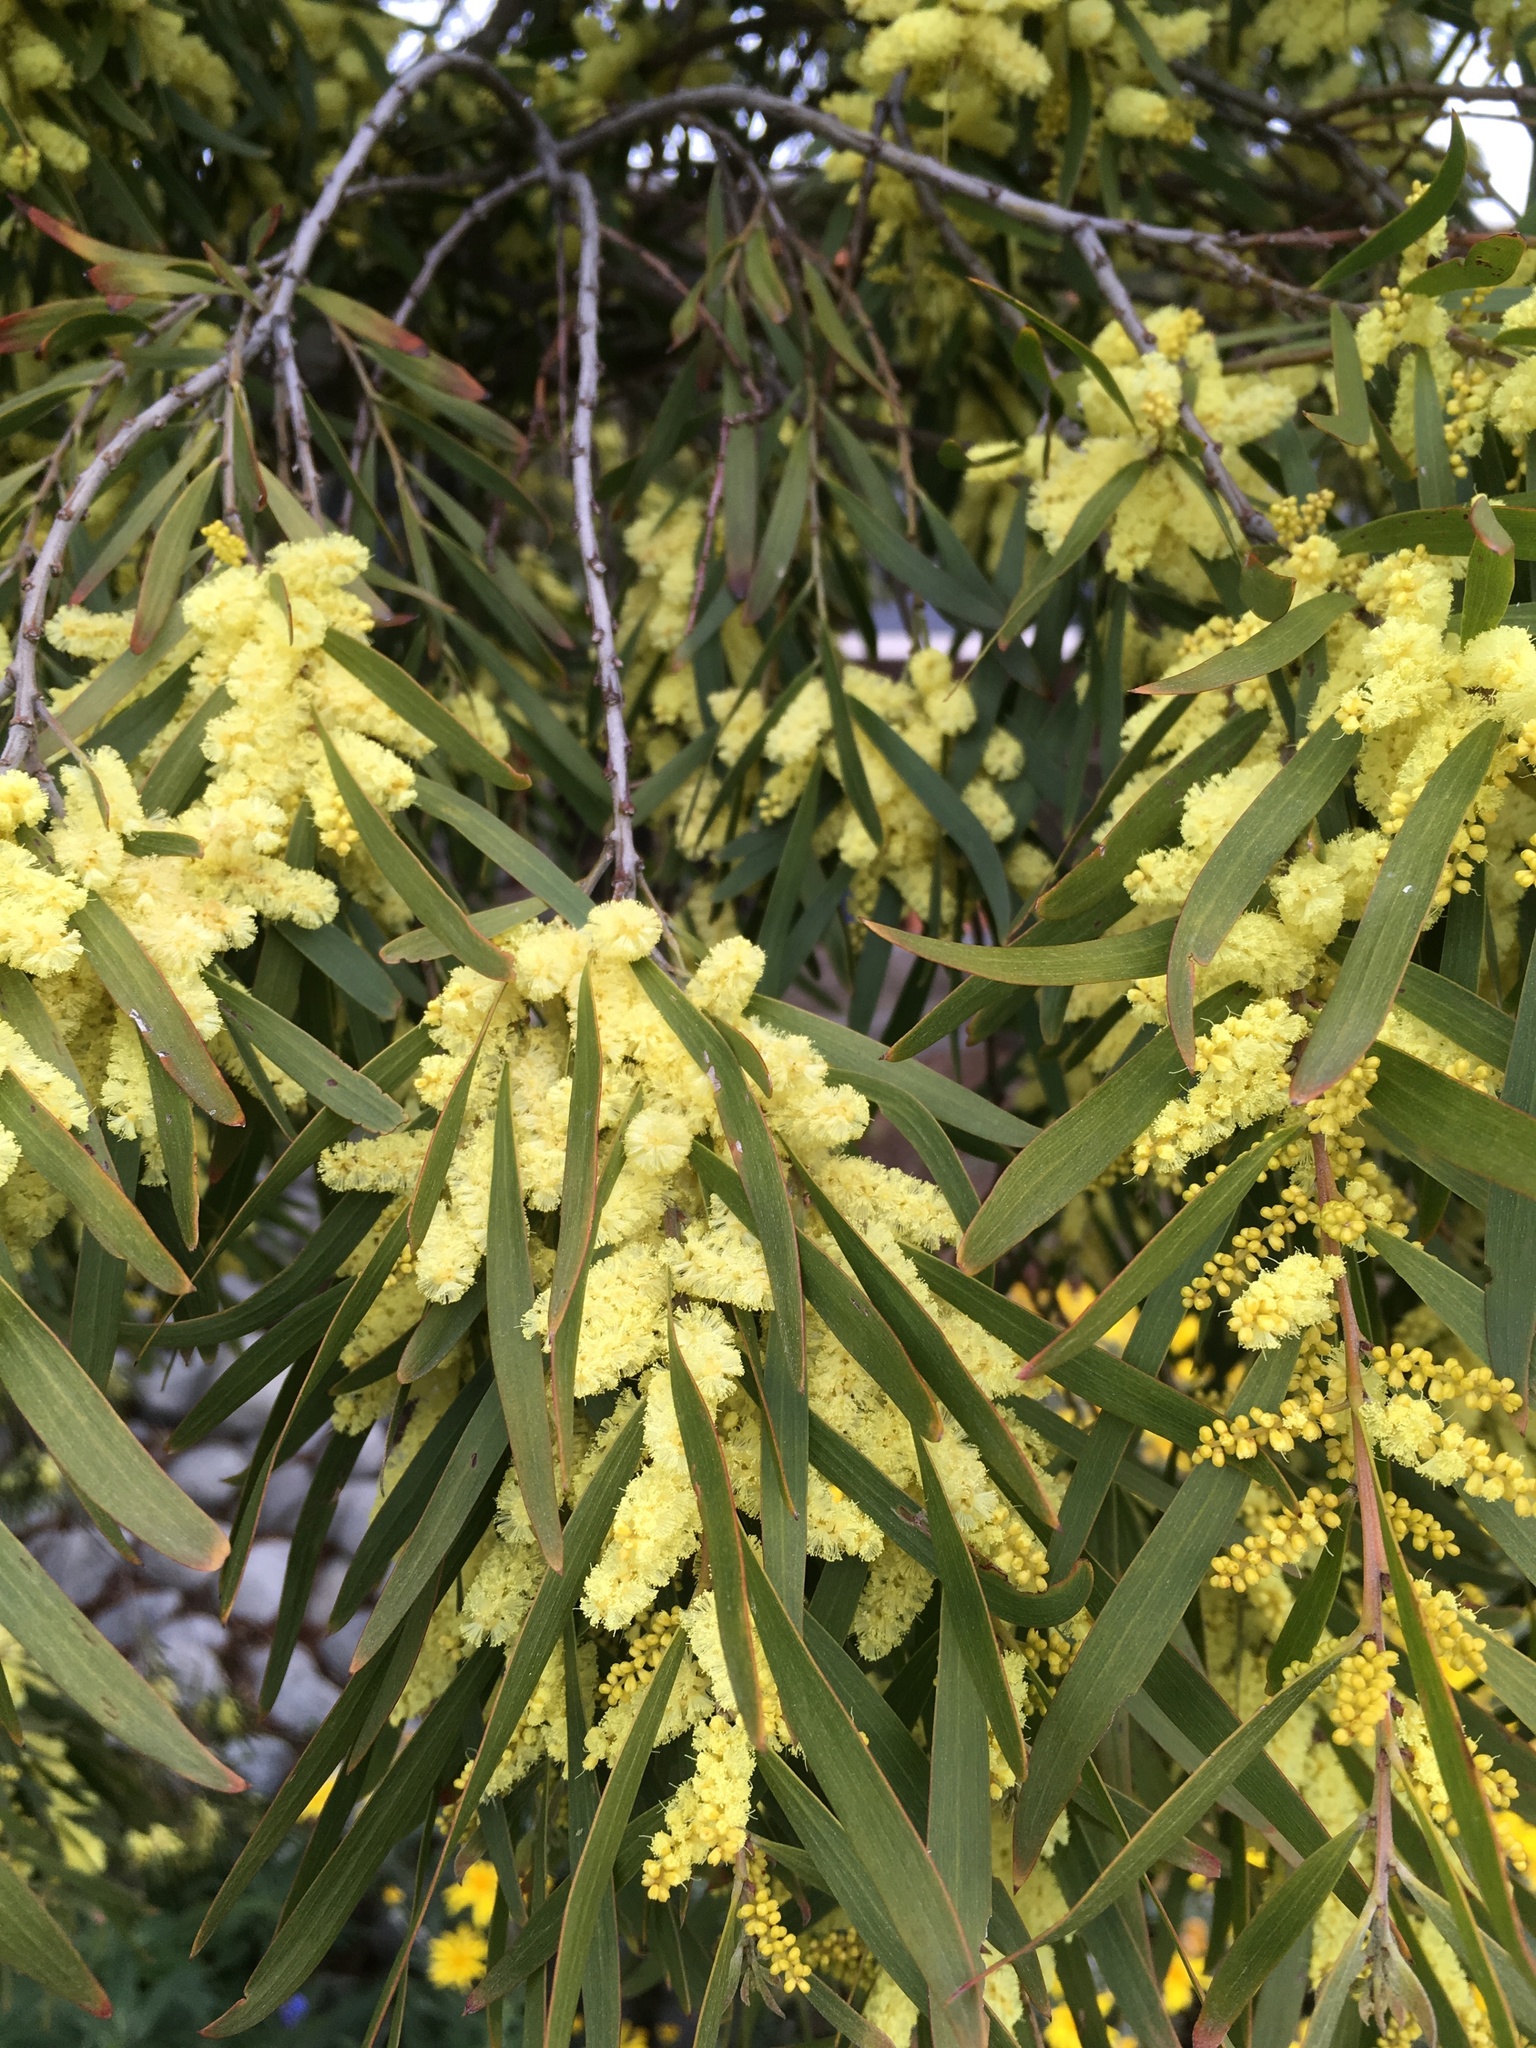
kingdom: Plantae
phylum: Tracheophyta
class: Magnoliopsida
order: Fabales
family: Fabaceae
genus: Acacia
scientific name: Acacia longifolia
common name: Sydney golden wattle
